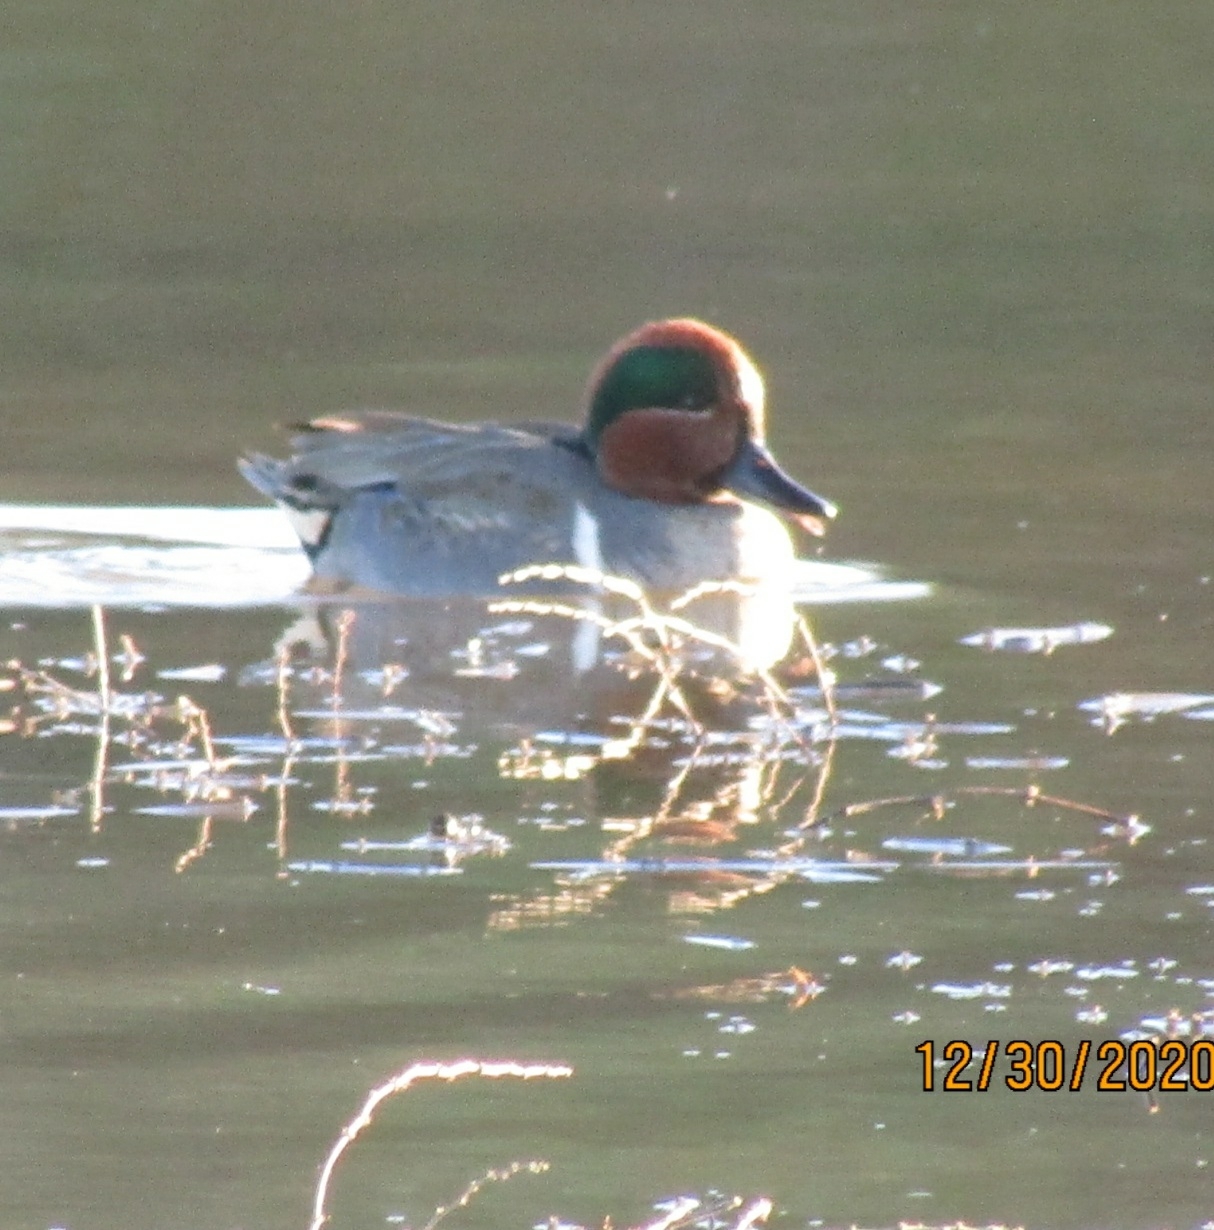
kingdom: Animalia
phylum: Chordata
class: Aves
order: Anseriformes
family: Anatidae
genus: Anas
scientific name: Anas crecca
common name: Eurasian teal
